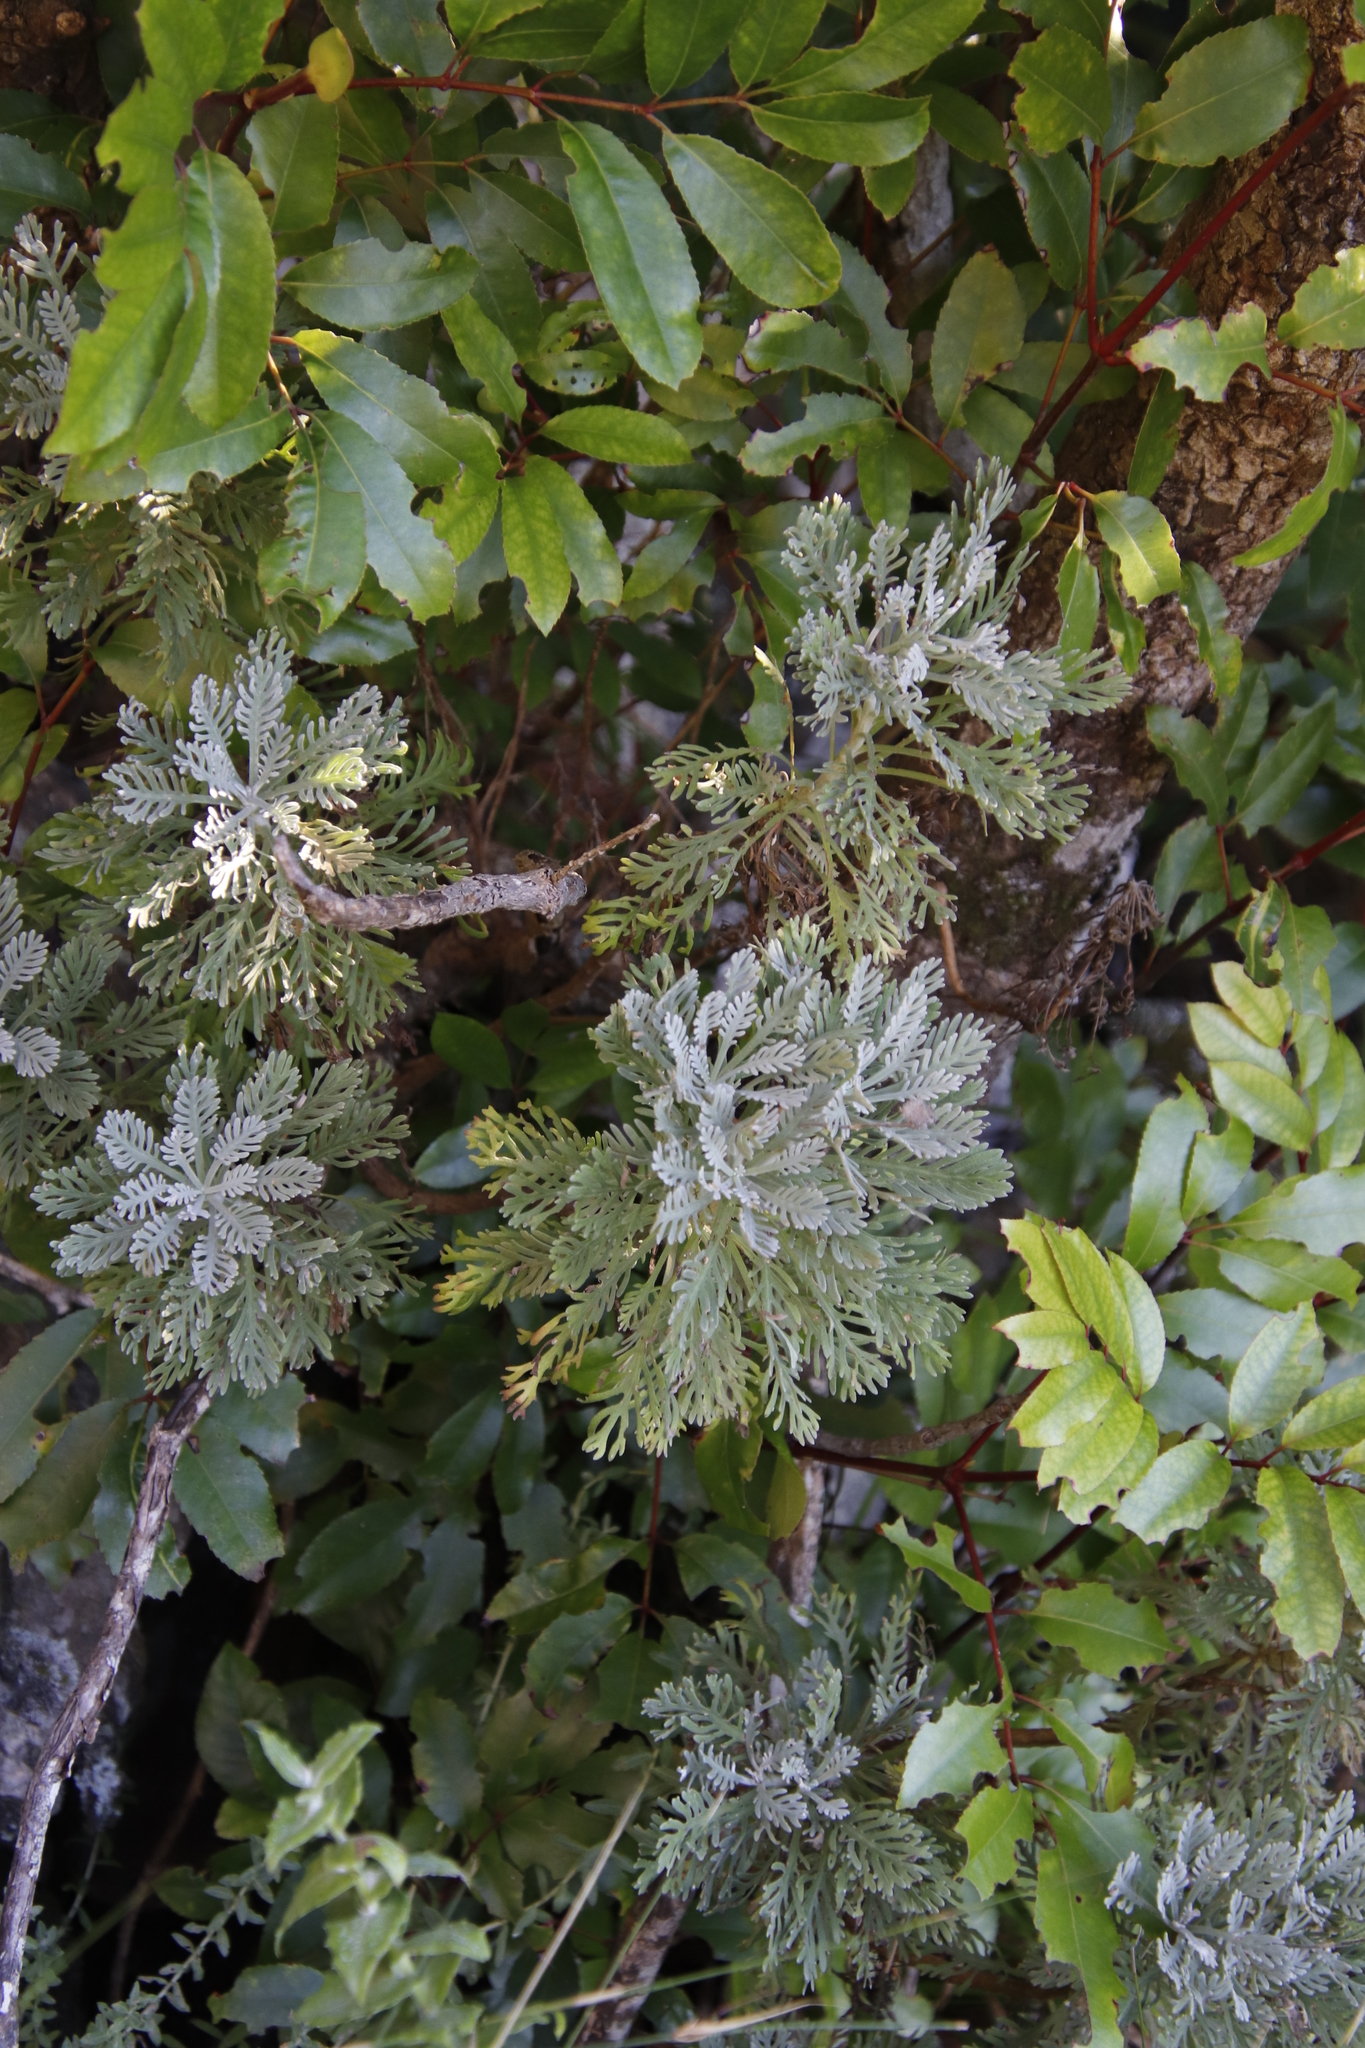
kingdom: Plantae
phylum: Tracheophyta
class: Magnoliopsida
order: Asterales
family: Asteraceae
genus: Euryops
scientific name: Euryops pectinatus
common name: Gray-leaf euryops
